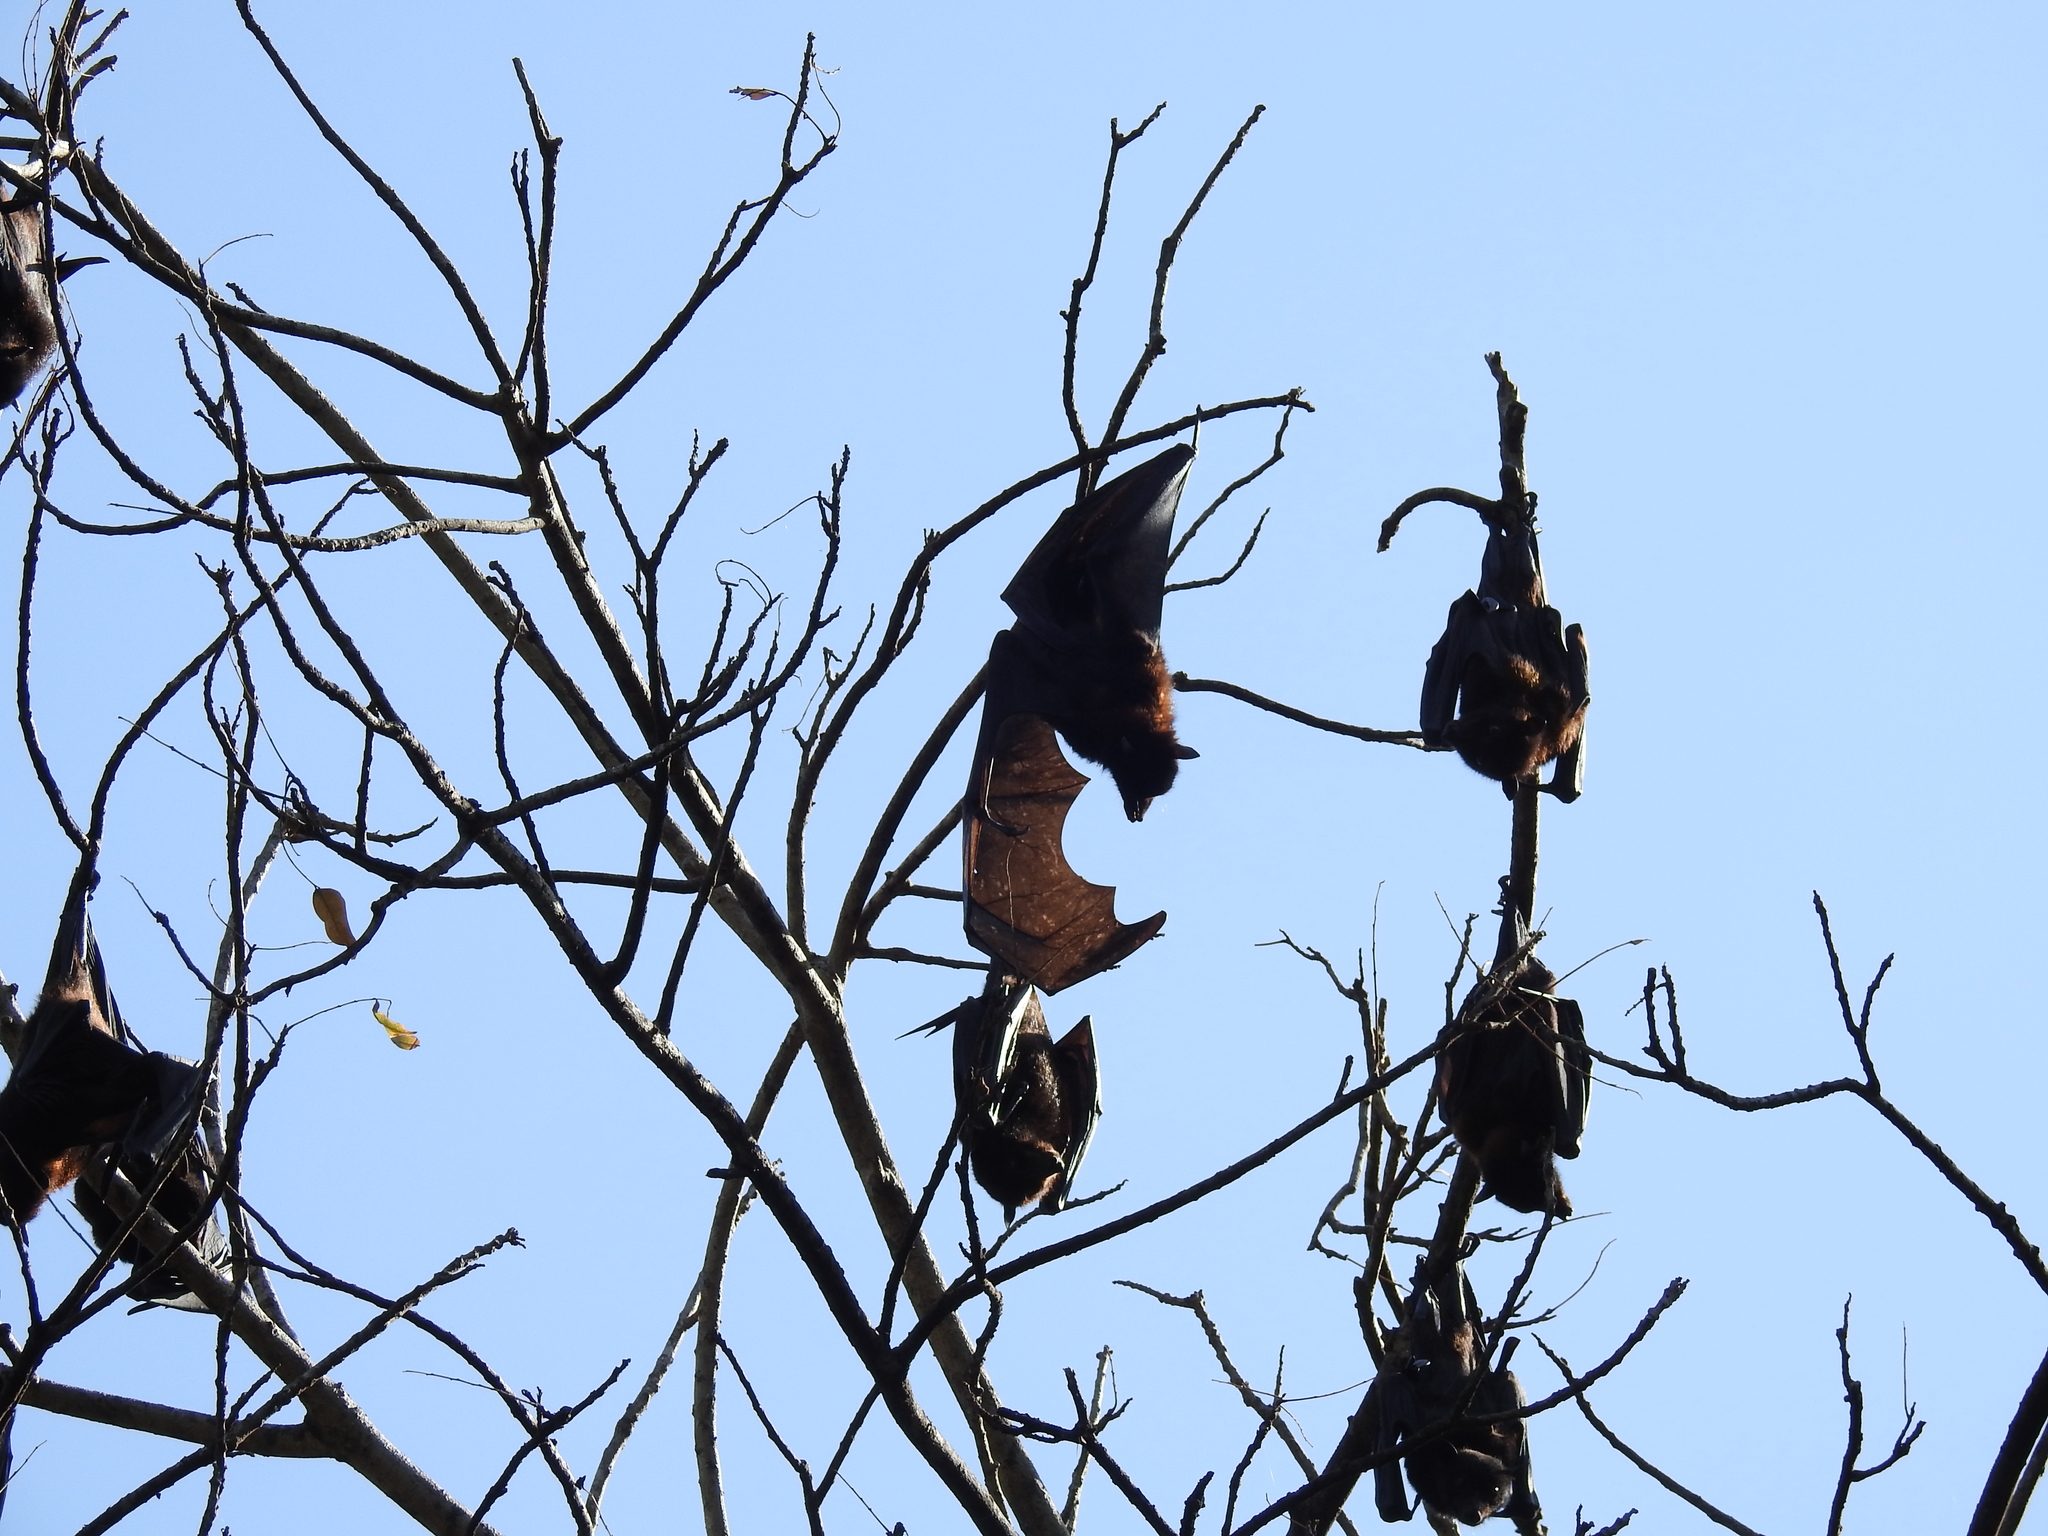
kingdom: Animalia
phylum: Chordata
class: Mammalia
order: Chiroptera
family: Pteropodidae
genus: Pteropus
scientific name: Pteropus alecto
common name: Black flying fox
